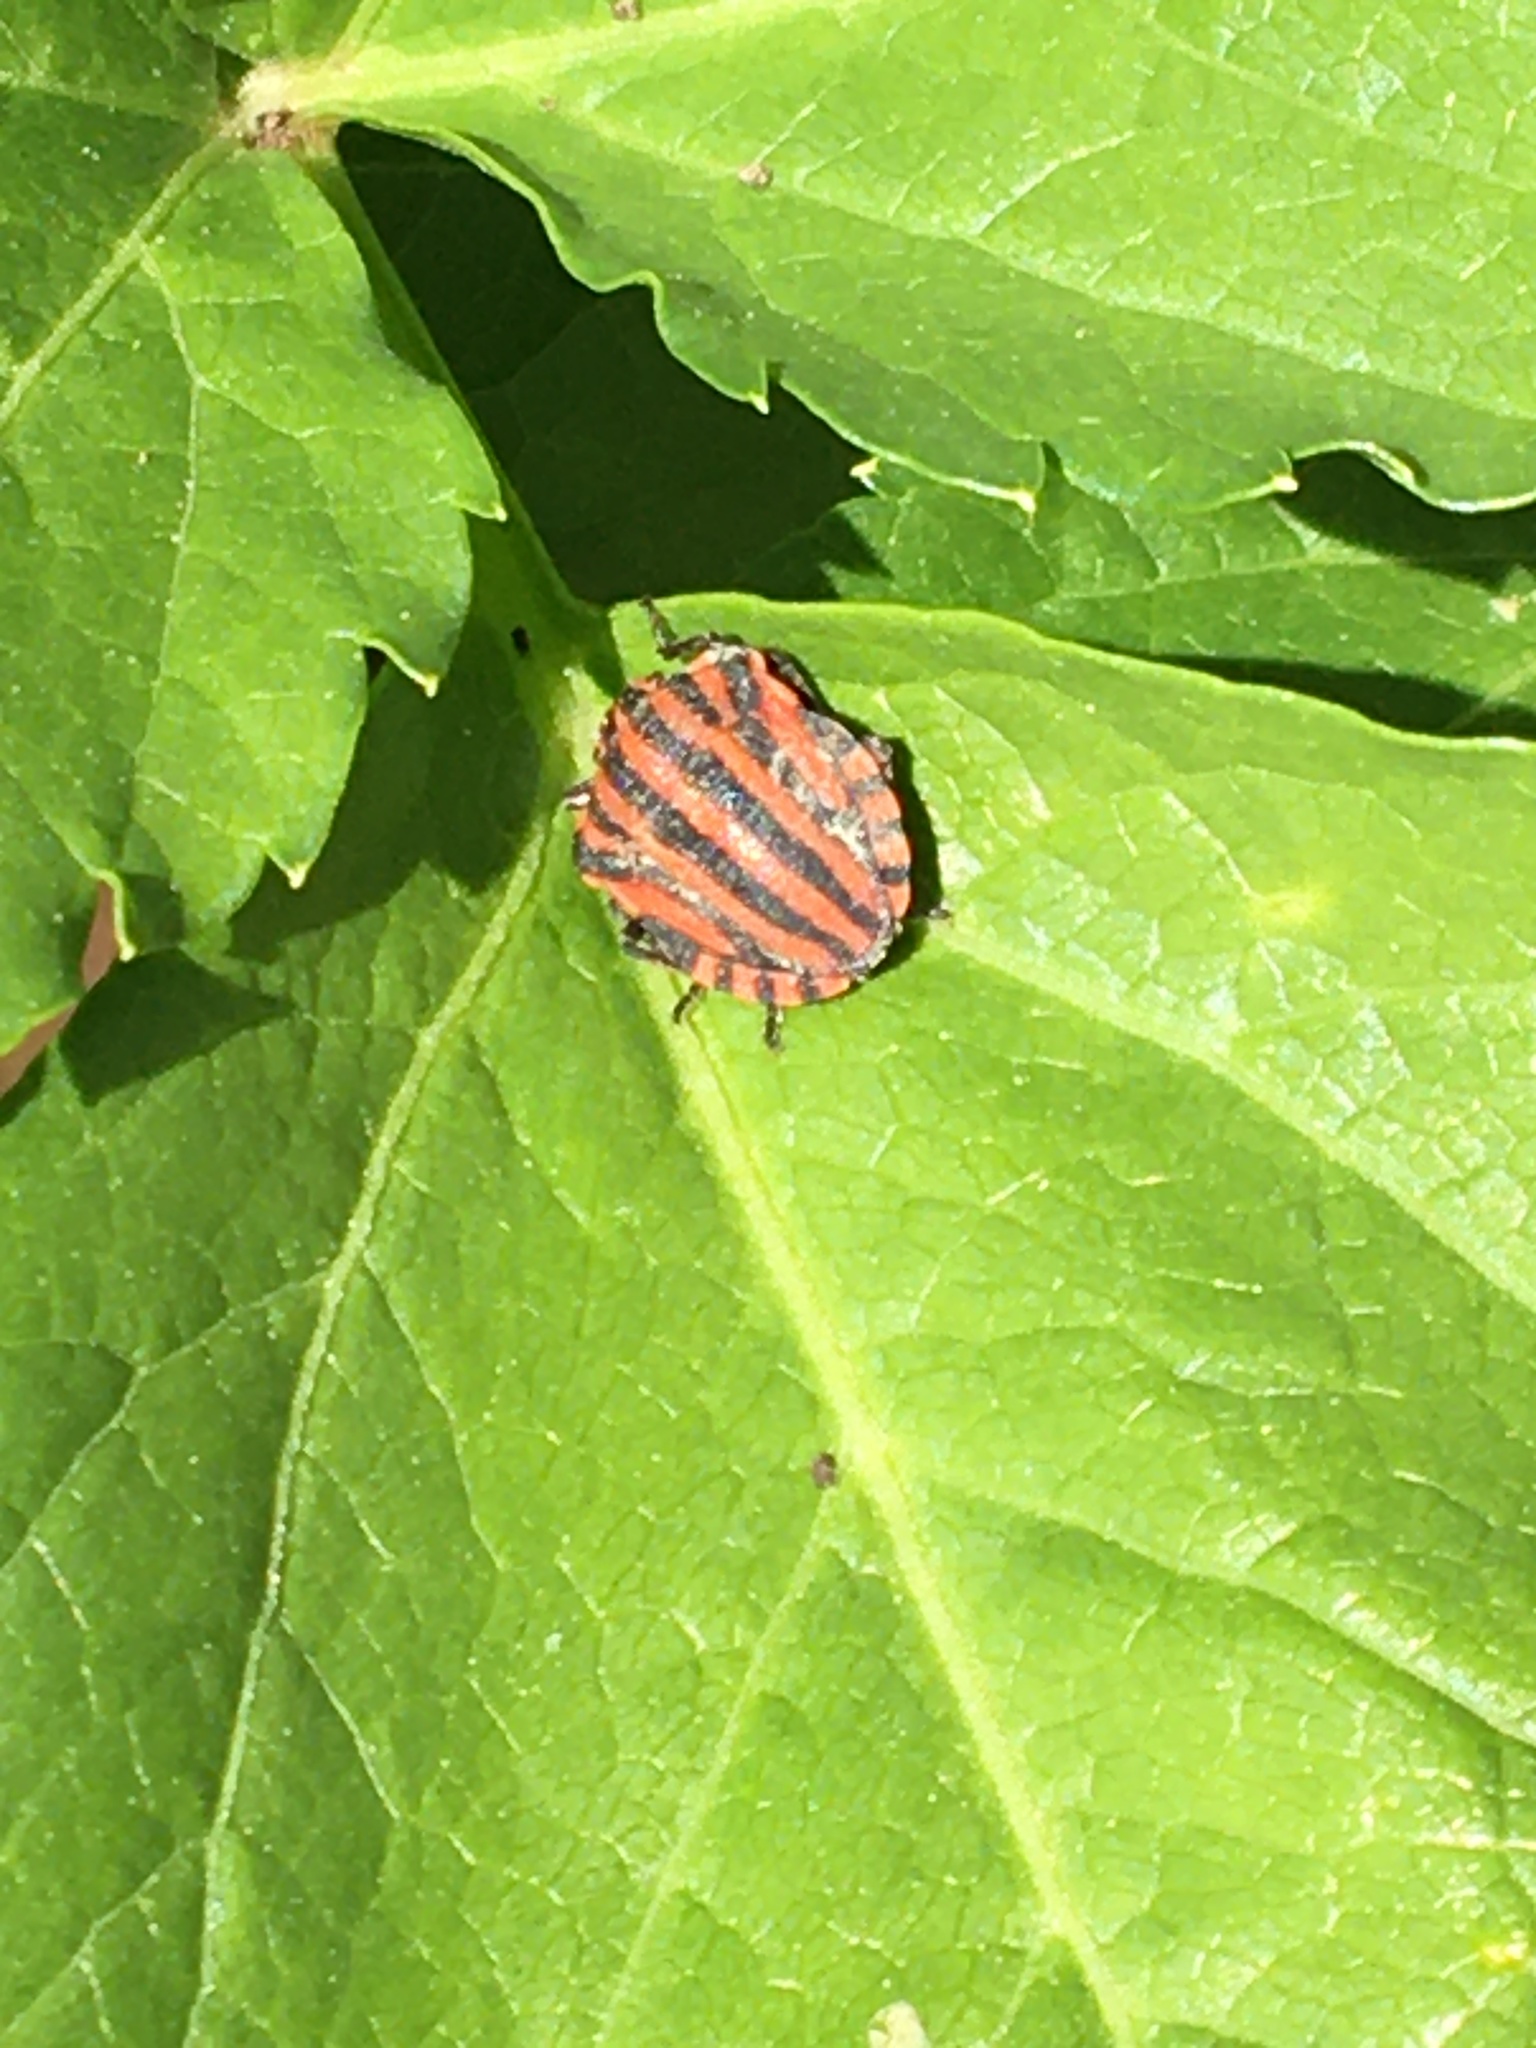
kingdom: Animalia
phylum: Arthropoda
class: Insecta
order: Hemiptera
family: Pentatomidae
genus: Graphosoma
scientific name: Graphosoma italicum
